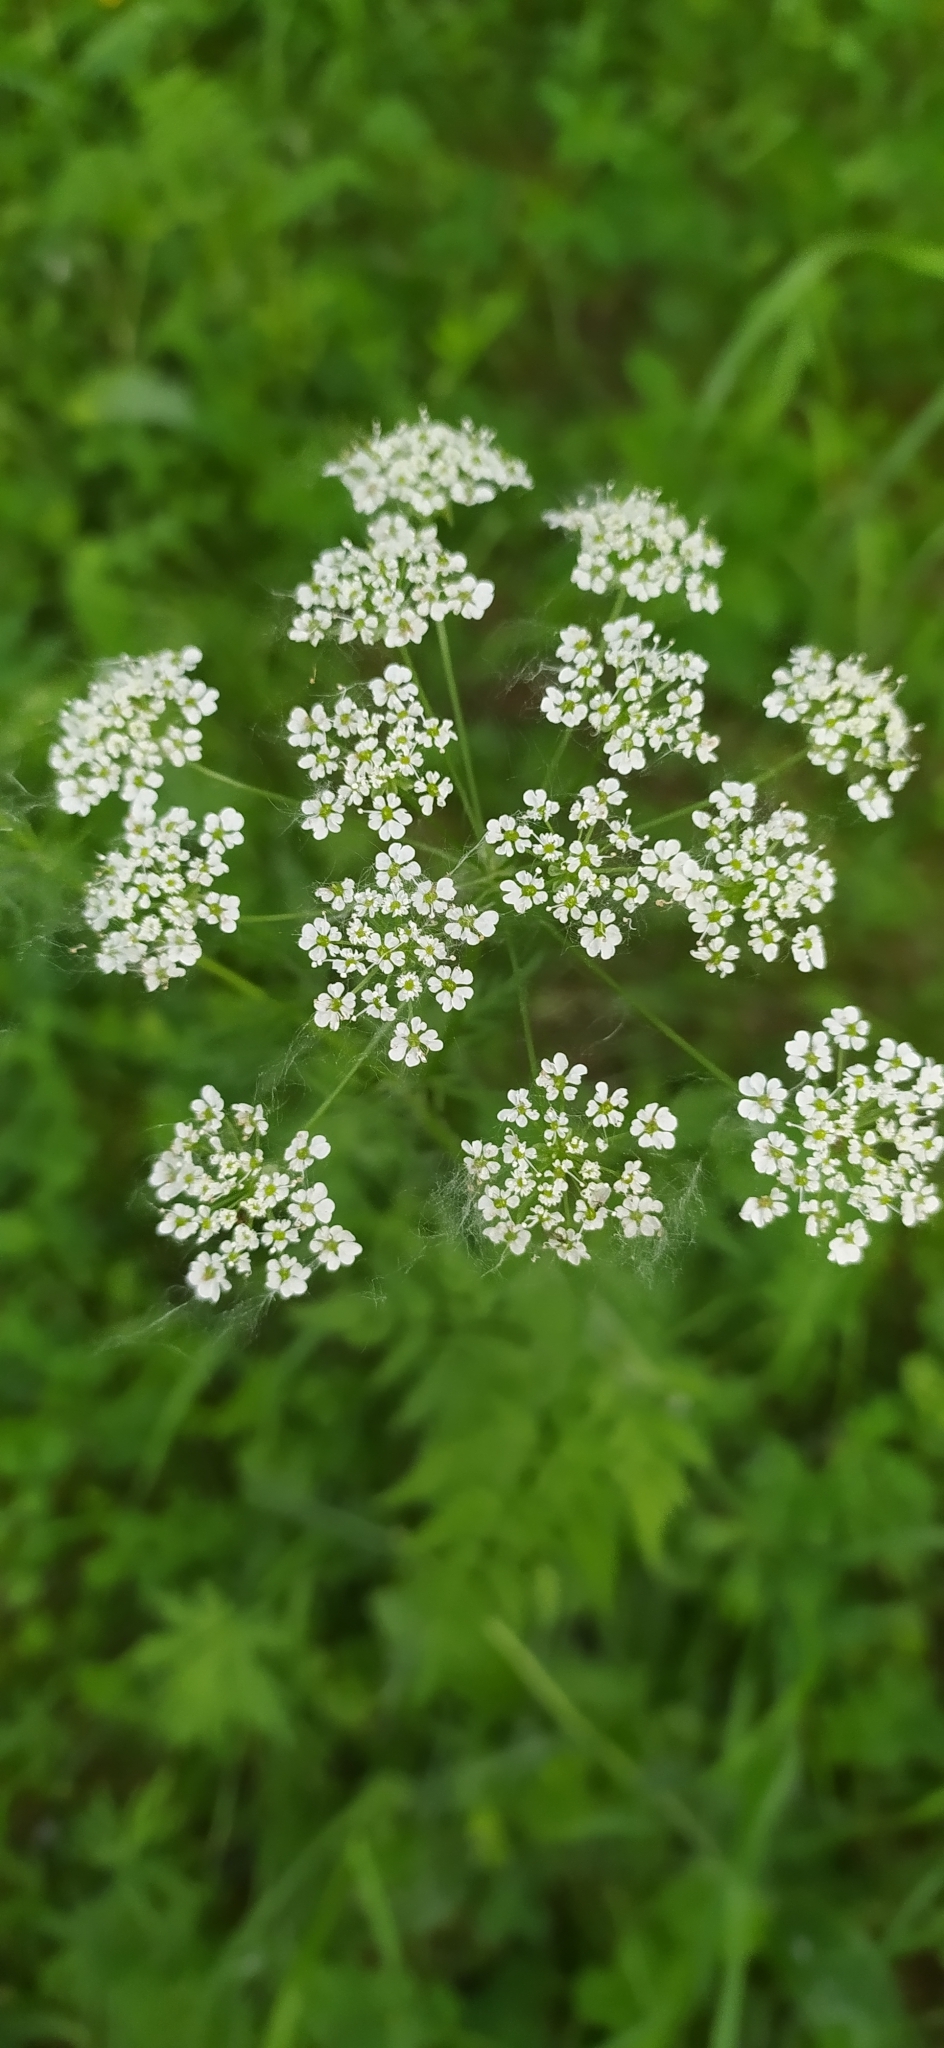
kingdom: Plantae
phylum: Tracheophyta
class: Magnoliopsida
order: Apiales
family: Apiaceae
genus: Chaerophyllum
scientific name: Chaerophyllum prescottii
